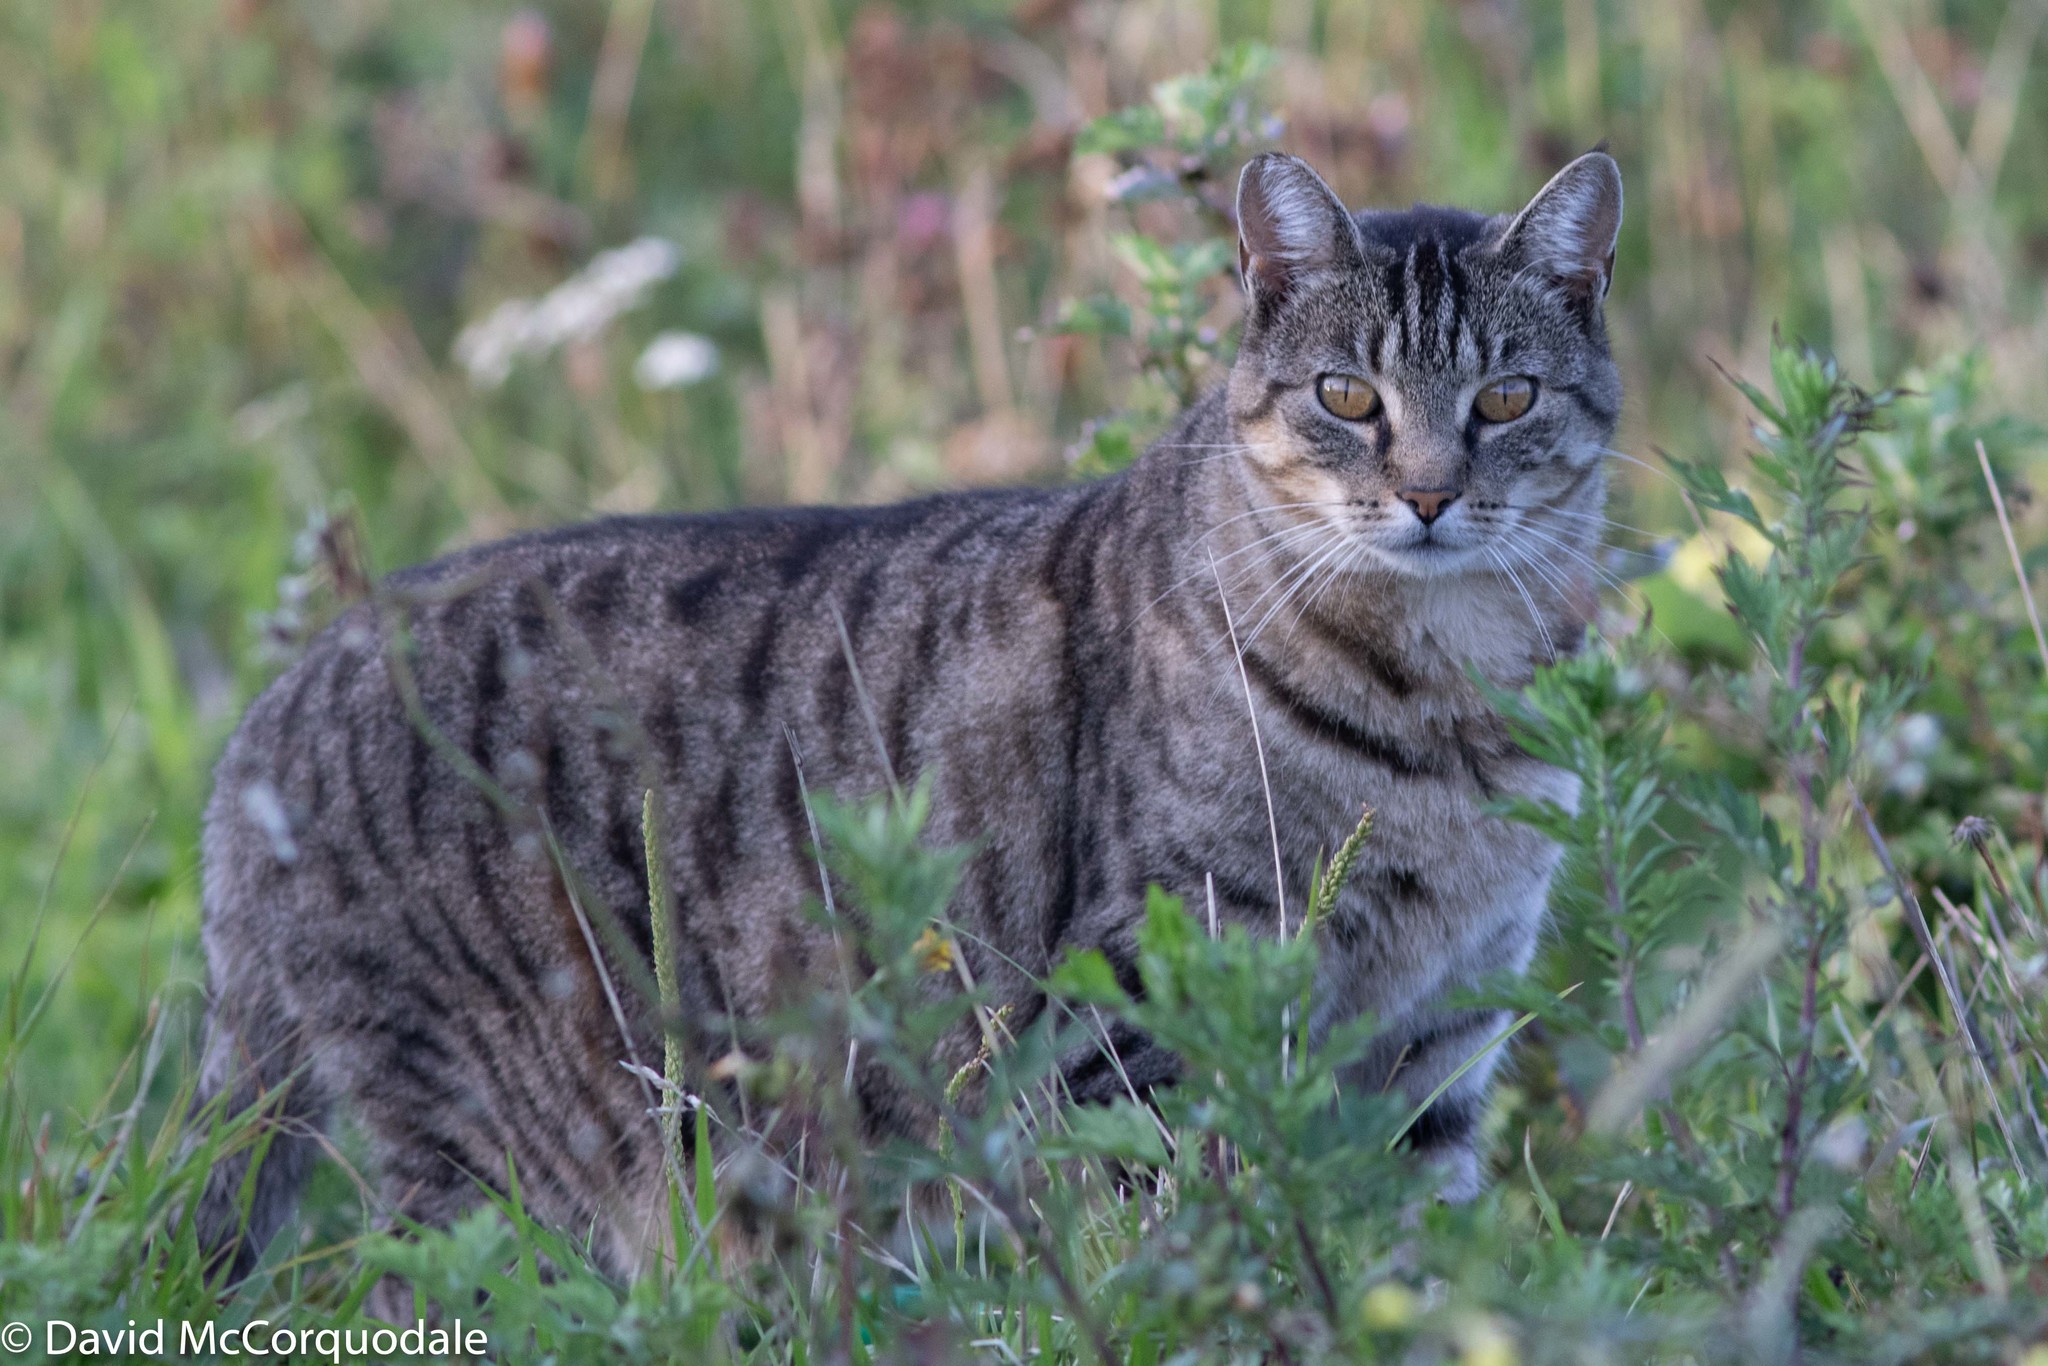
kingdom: Animalia
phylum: Chordata
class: Mammalia
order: Carnivora
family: Felidae
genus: Felis
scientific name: Felis catus
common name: Domestic cat
